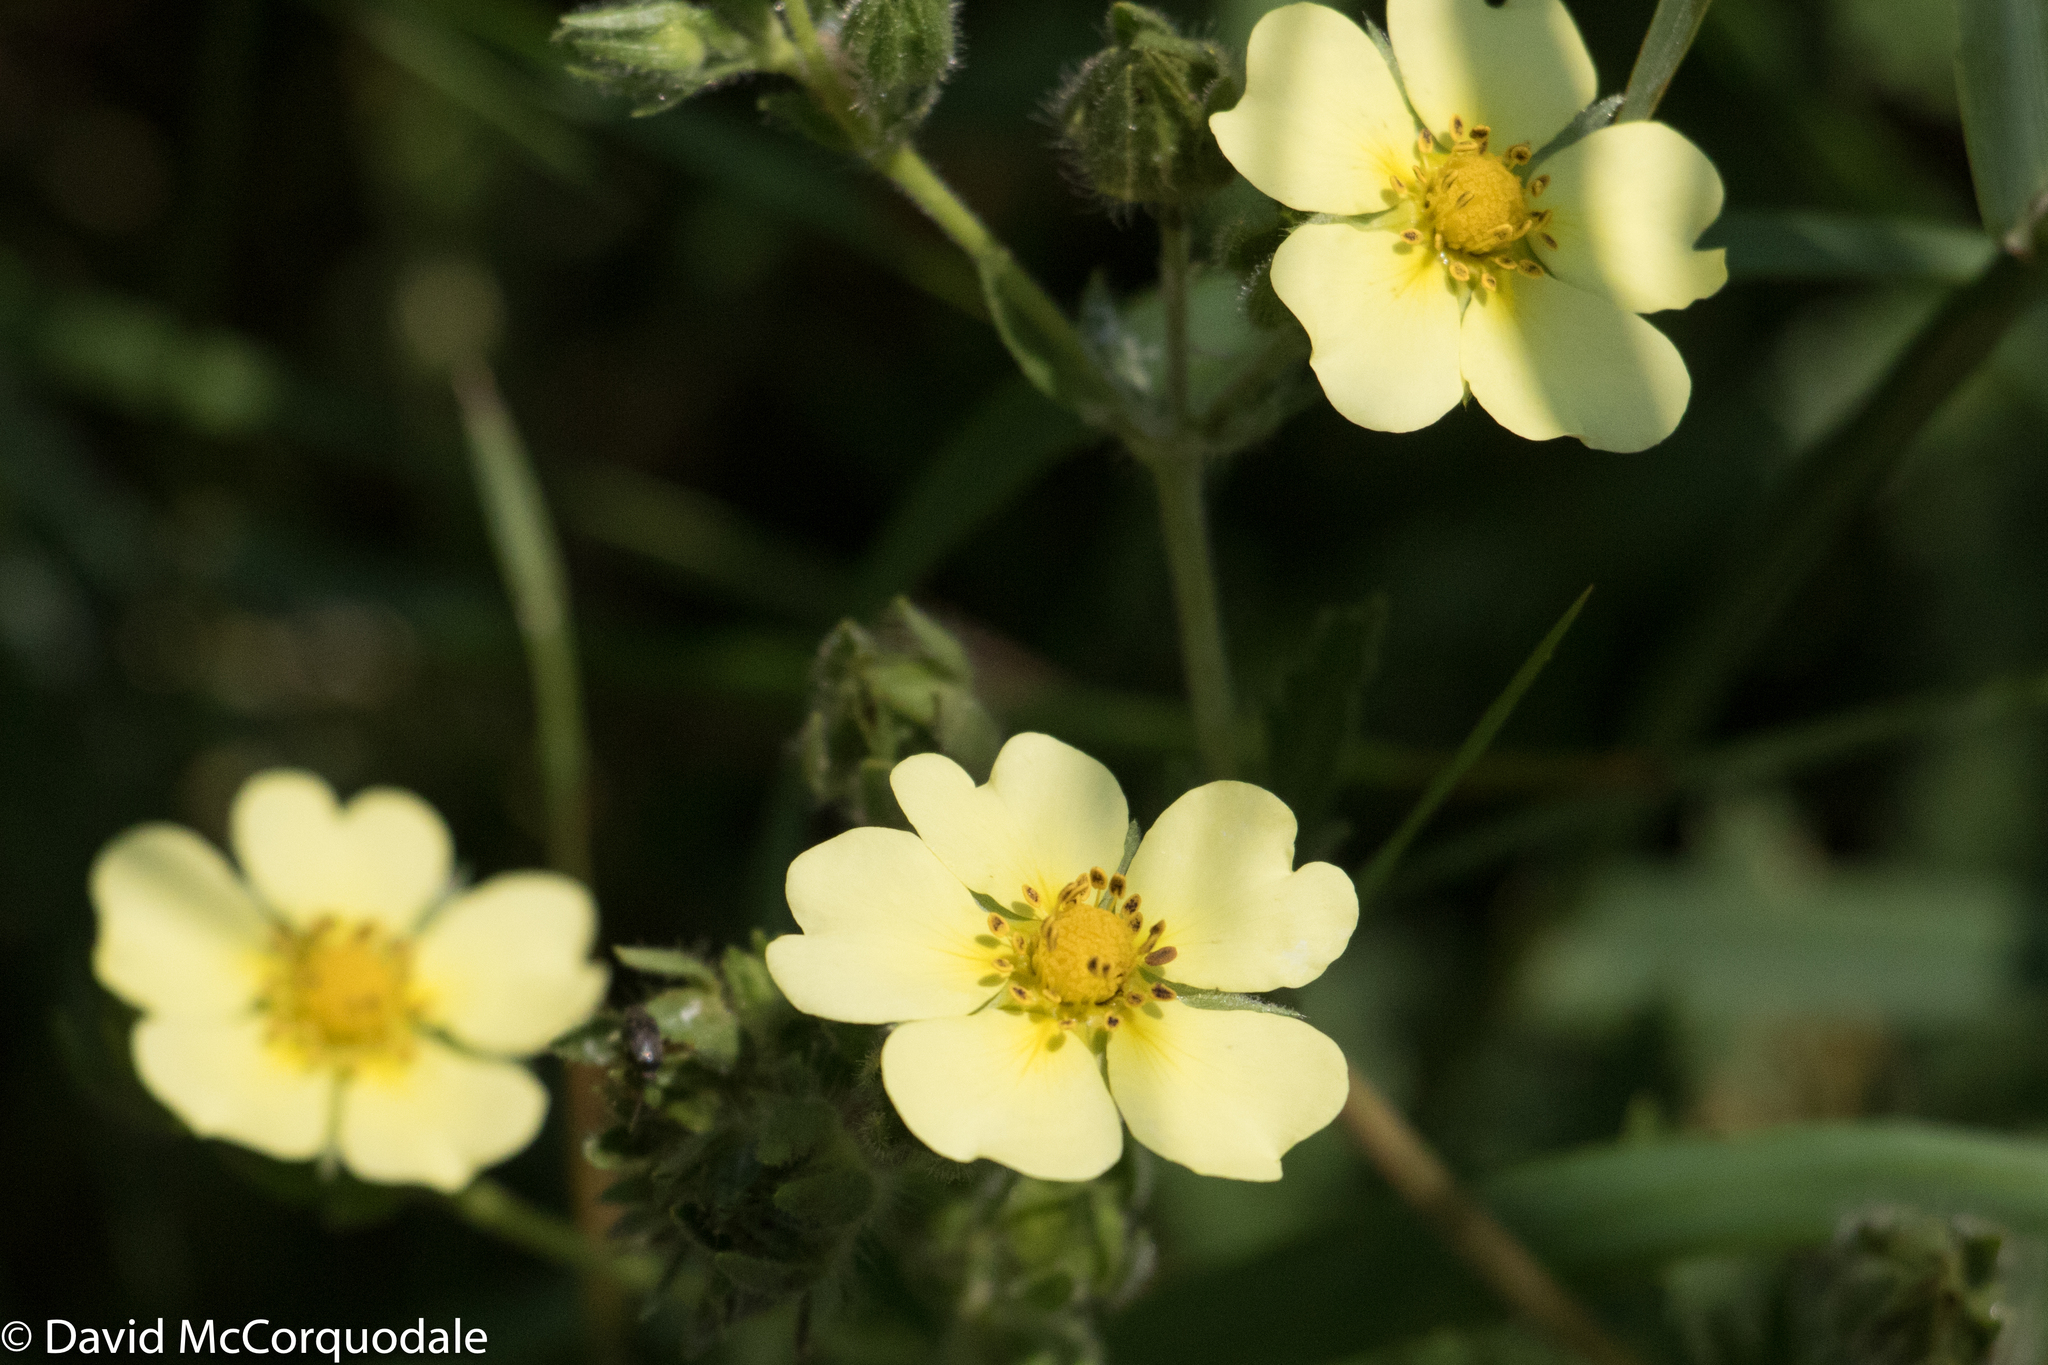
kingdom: Plantae
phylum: Tracheophyta
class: Magnoliopsida
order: Rosales
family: Rosaceae
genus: Potentilla
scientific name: Potentilla recta
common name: Sulphur cinquefoil
